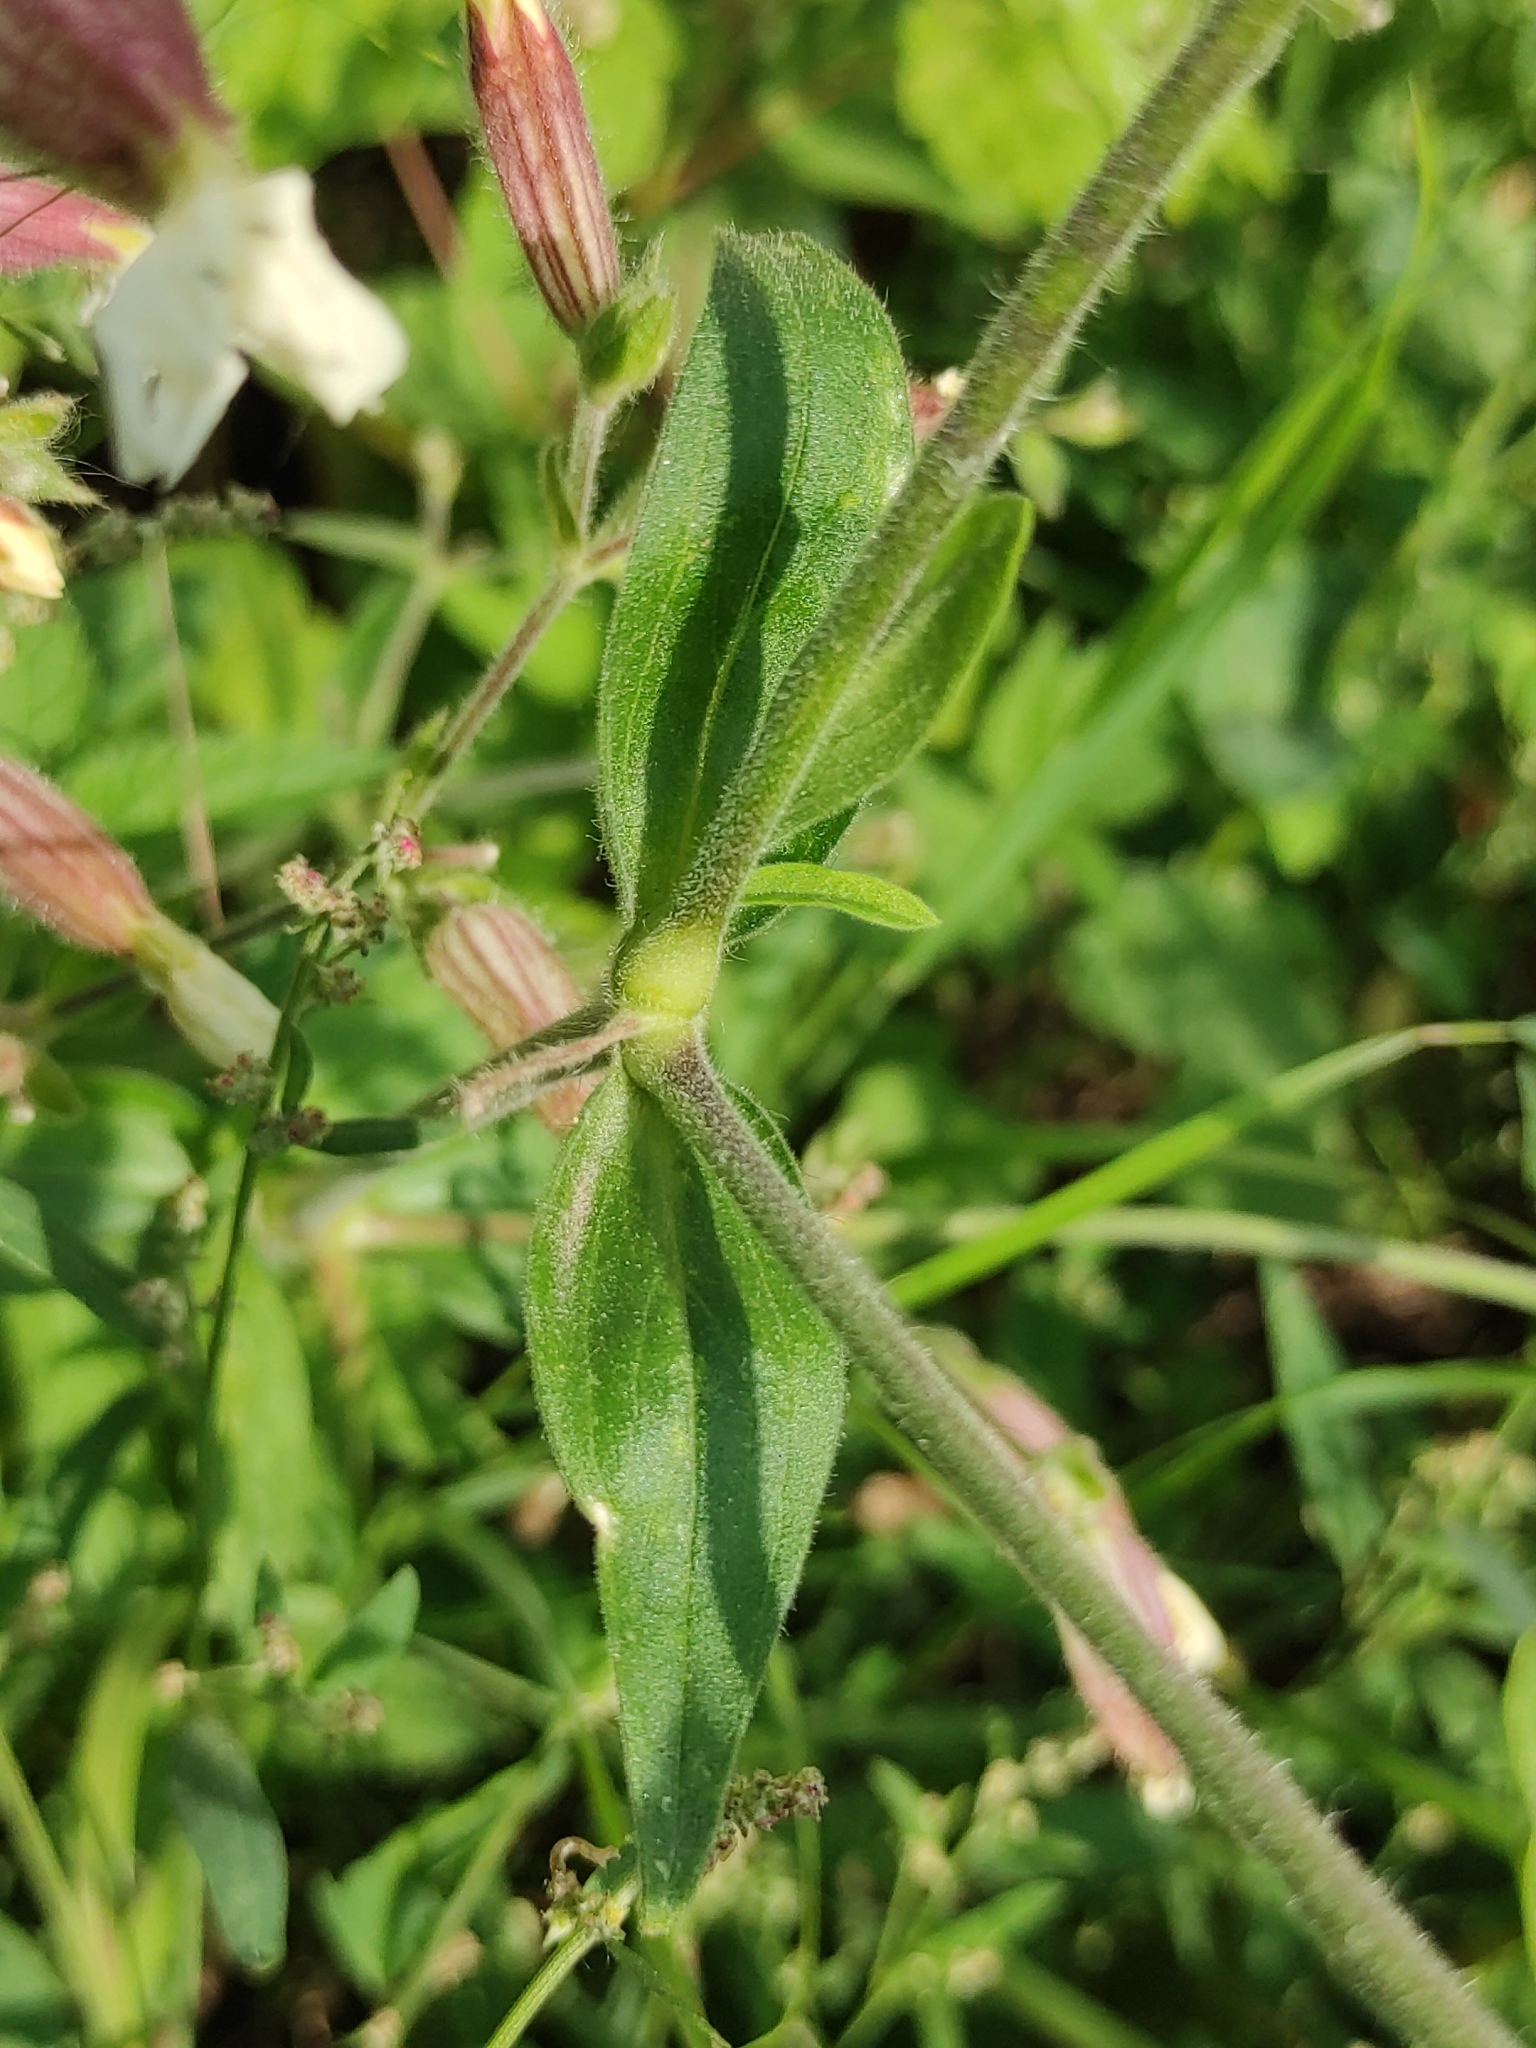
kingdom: Plantae
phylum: Tracheophyta
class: Magnoliopsida
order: Caryophyllales
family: Caryophyllaceae
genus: Silene
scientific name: Silene latifolia
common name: White campion
